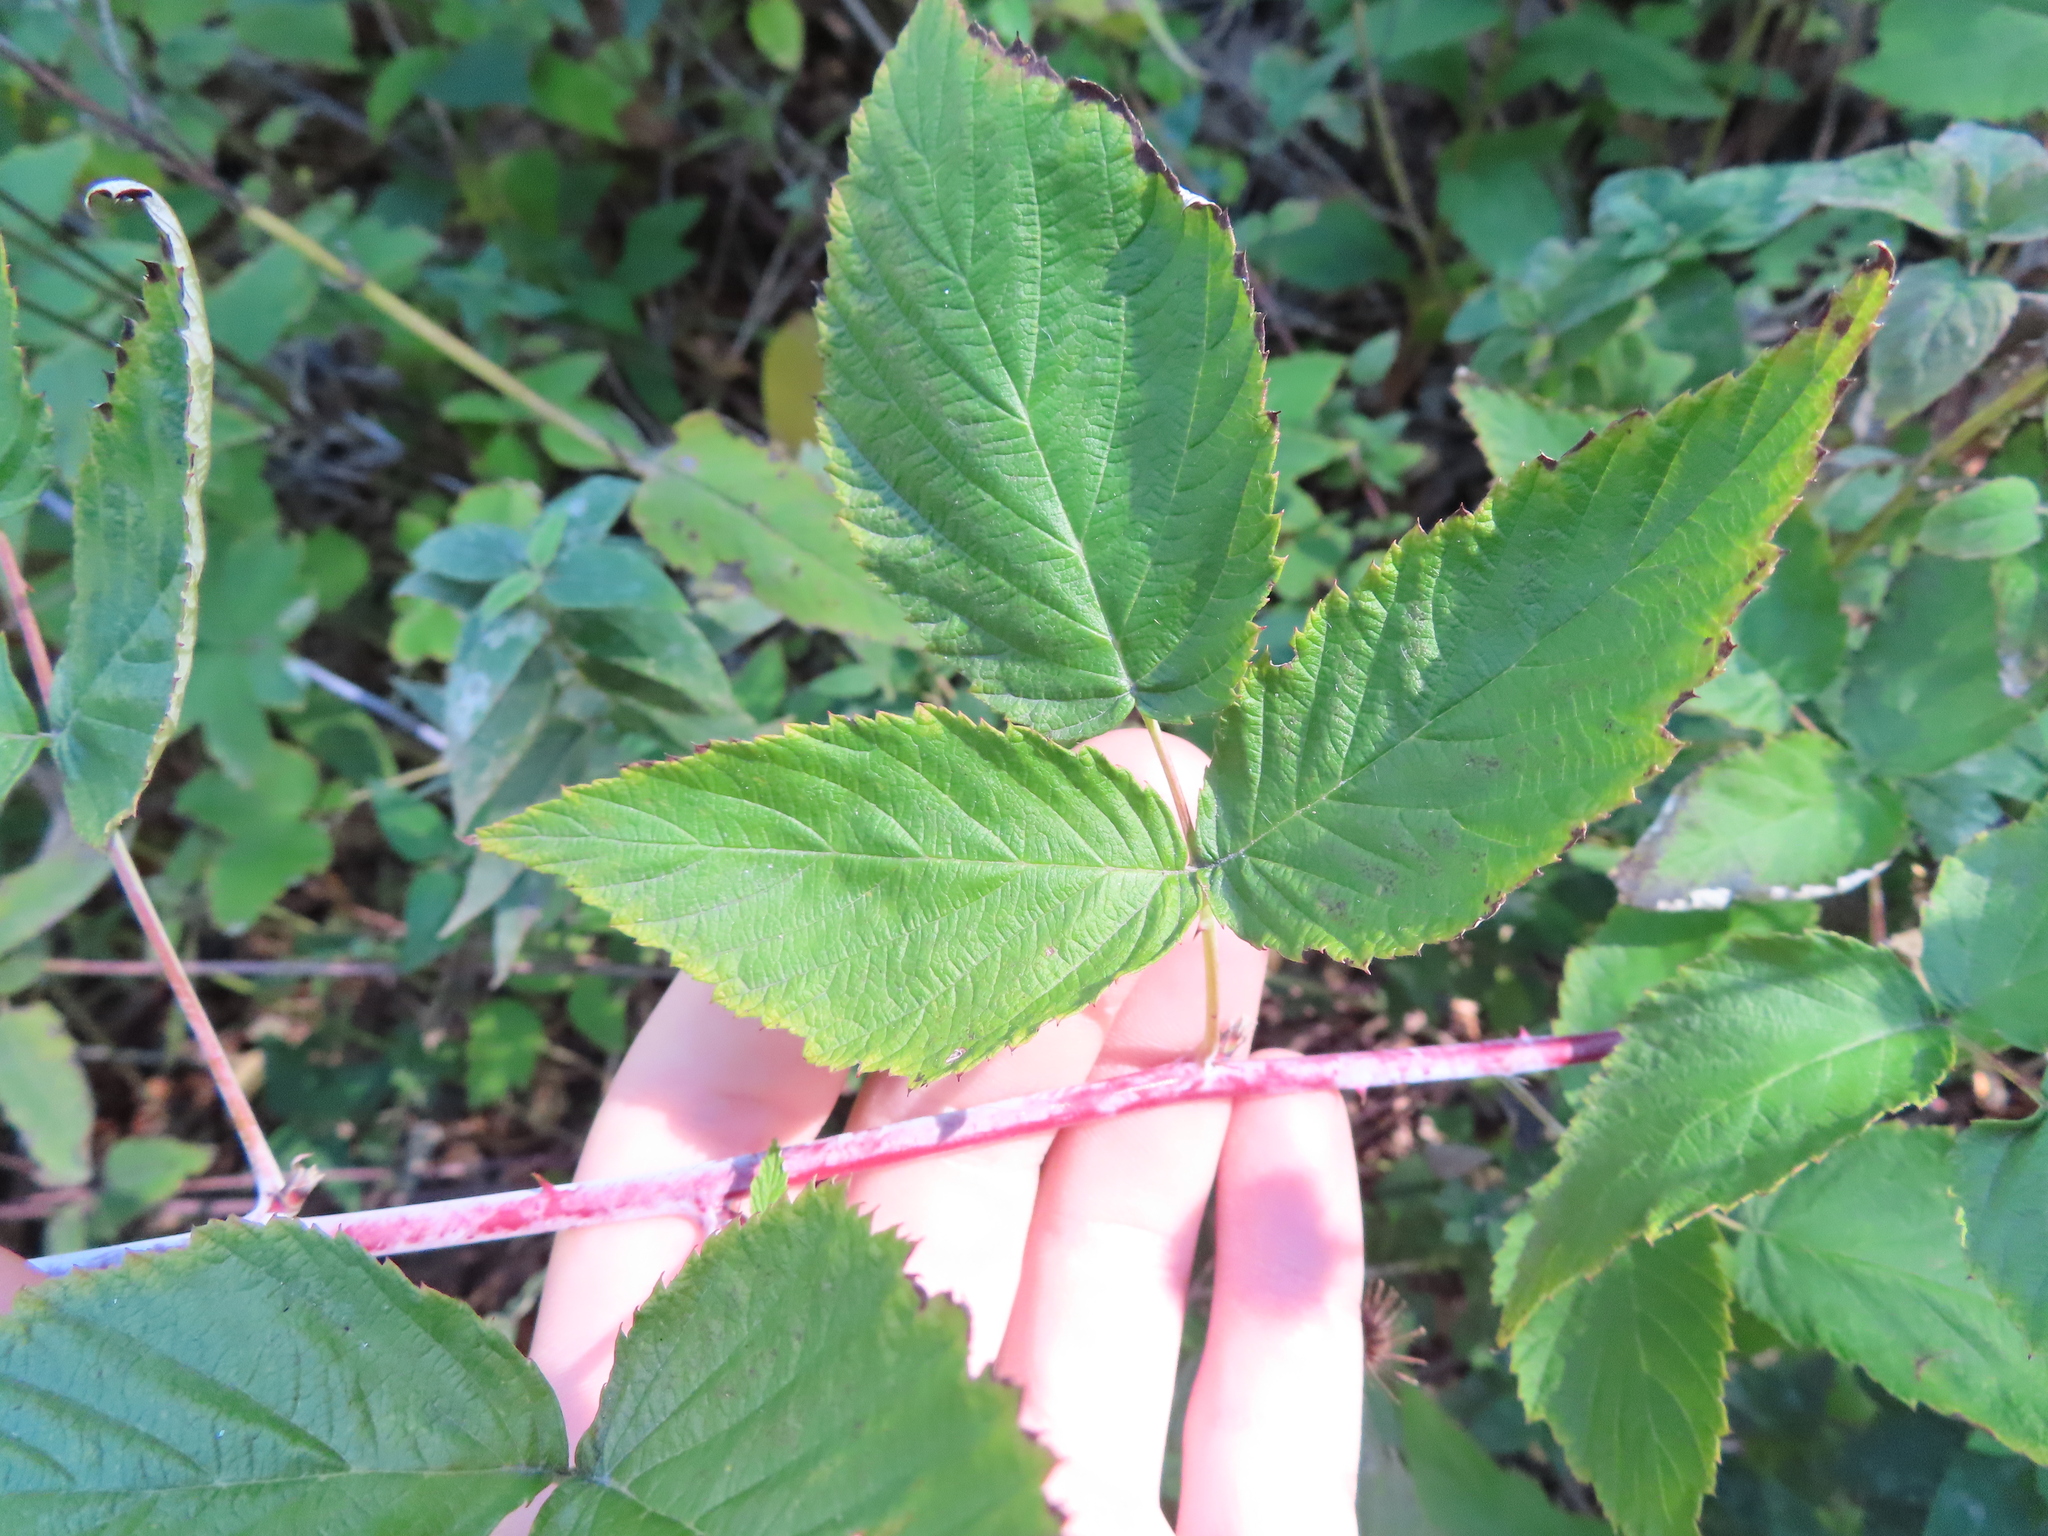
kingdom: Plantae
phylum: Tracheophyta
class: Magnoliopsida
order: Rosales
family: Rosaceae
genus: Rubus
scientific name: Rubus occidentalis
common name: Black raspberry
